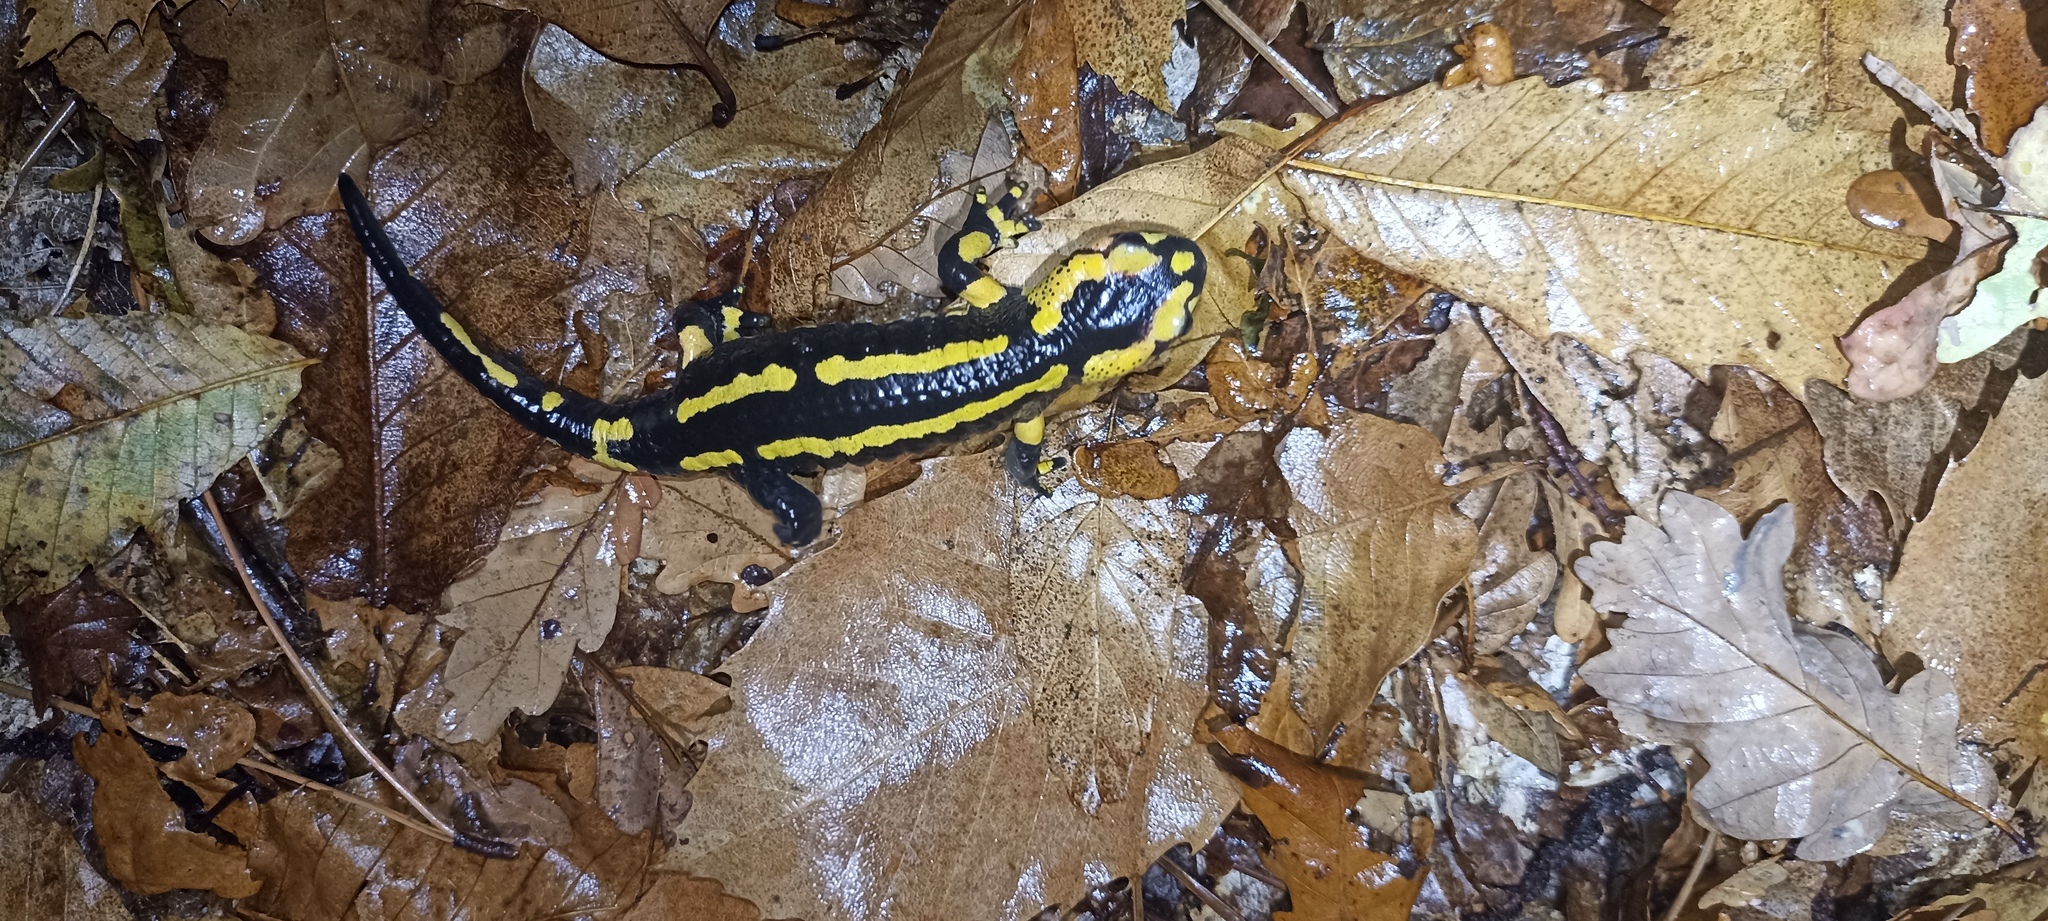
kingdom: Animalia
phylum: Chordata
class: Amphibia
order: Caudata
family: Salamandridae
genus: Salamandra
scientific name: Salamandra salamandra
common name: Fire salamander
